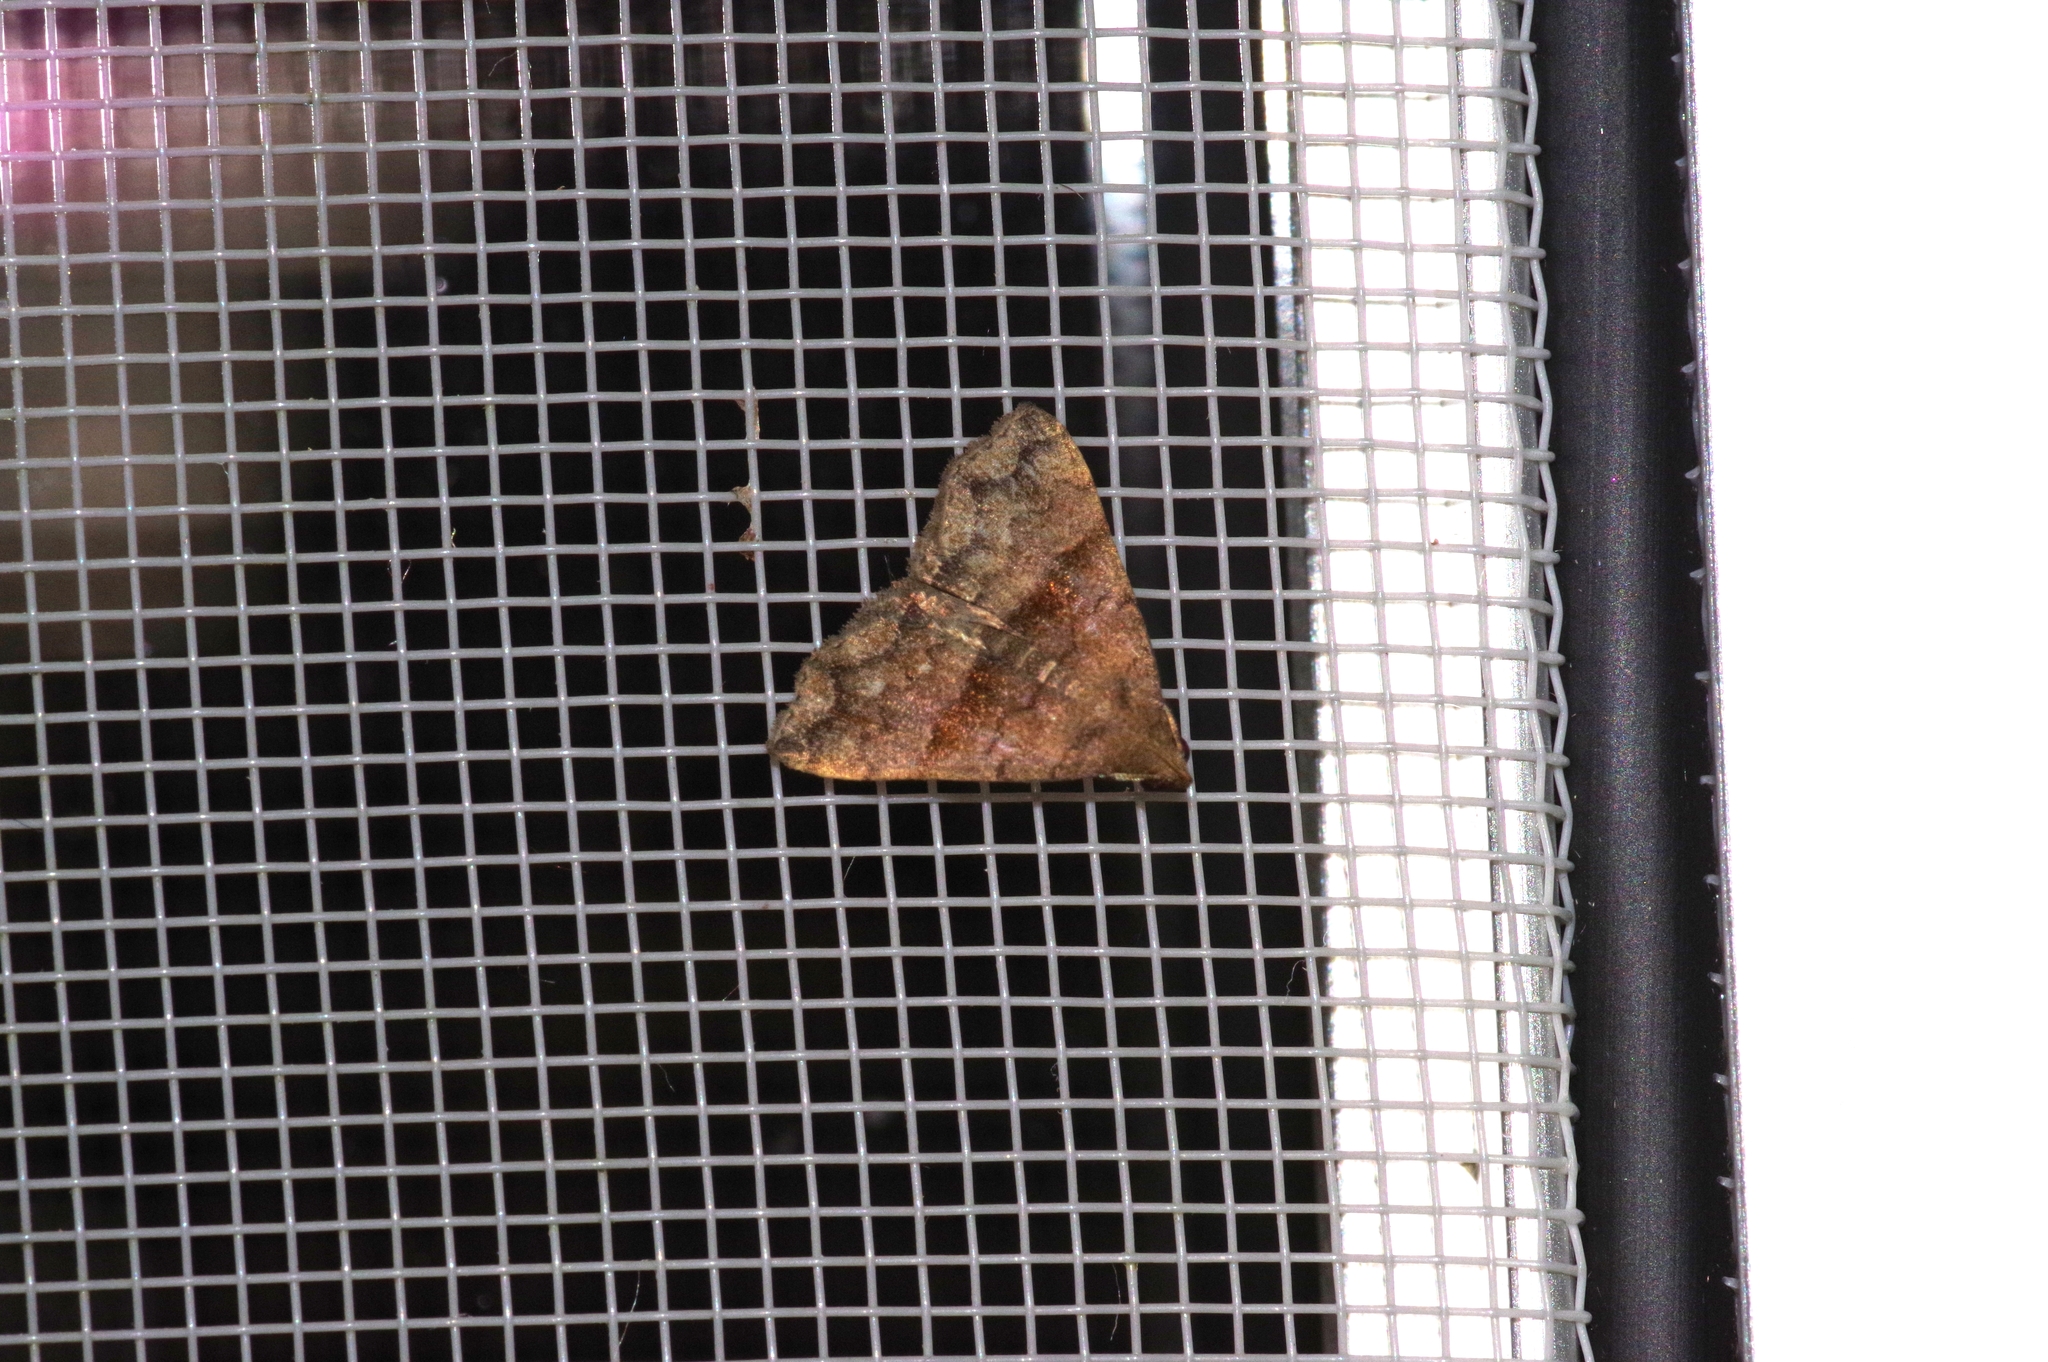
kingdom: Animalia
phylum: Arthropoda
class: Insecta
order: Lepidoptera
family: Erebidae
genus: Polypogon
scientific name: Polypogon Hipoepa fractalis
